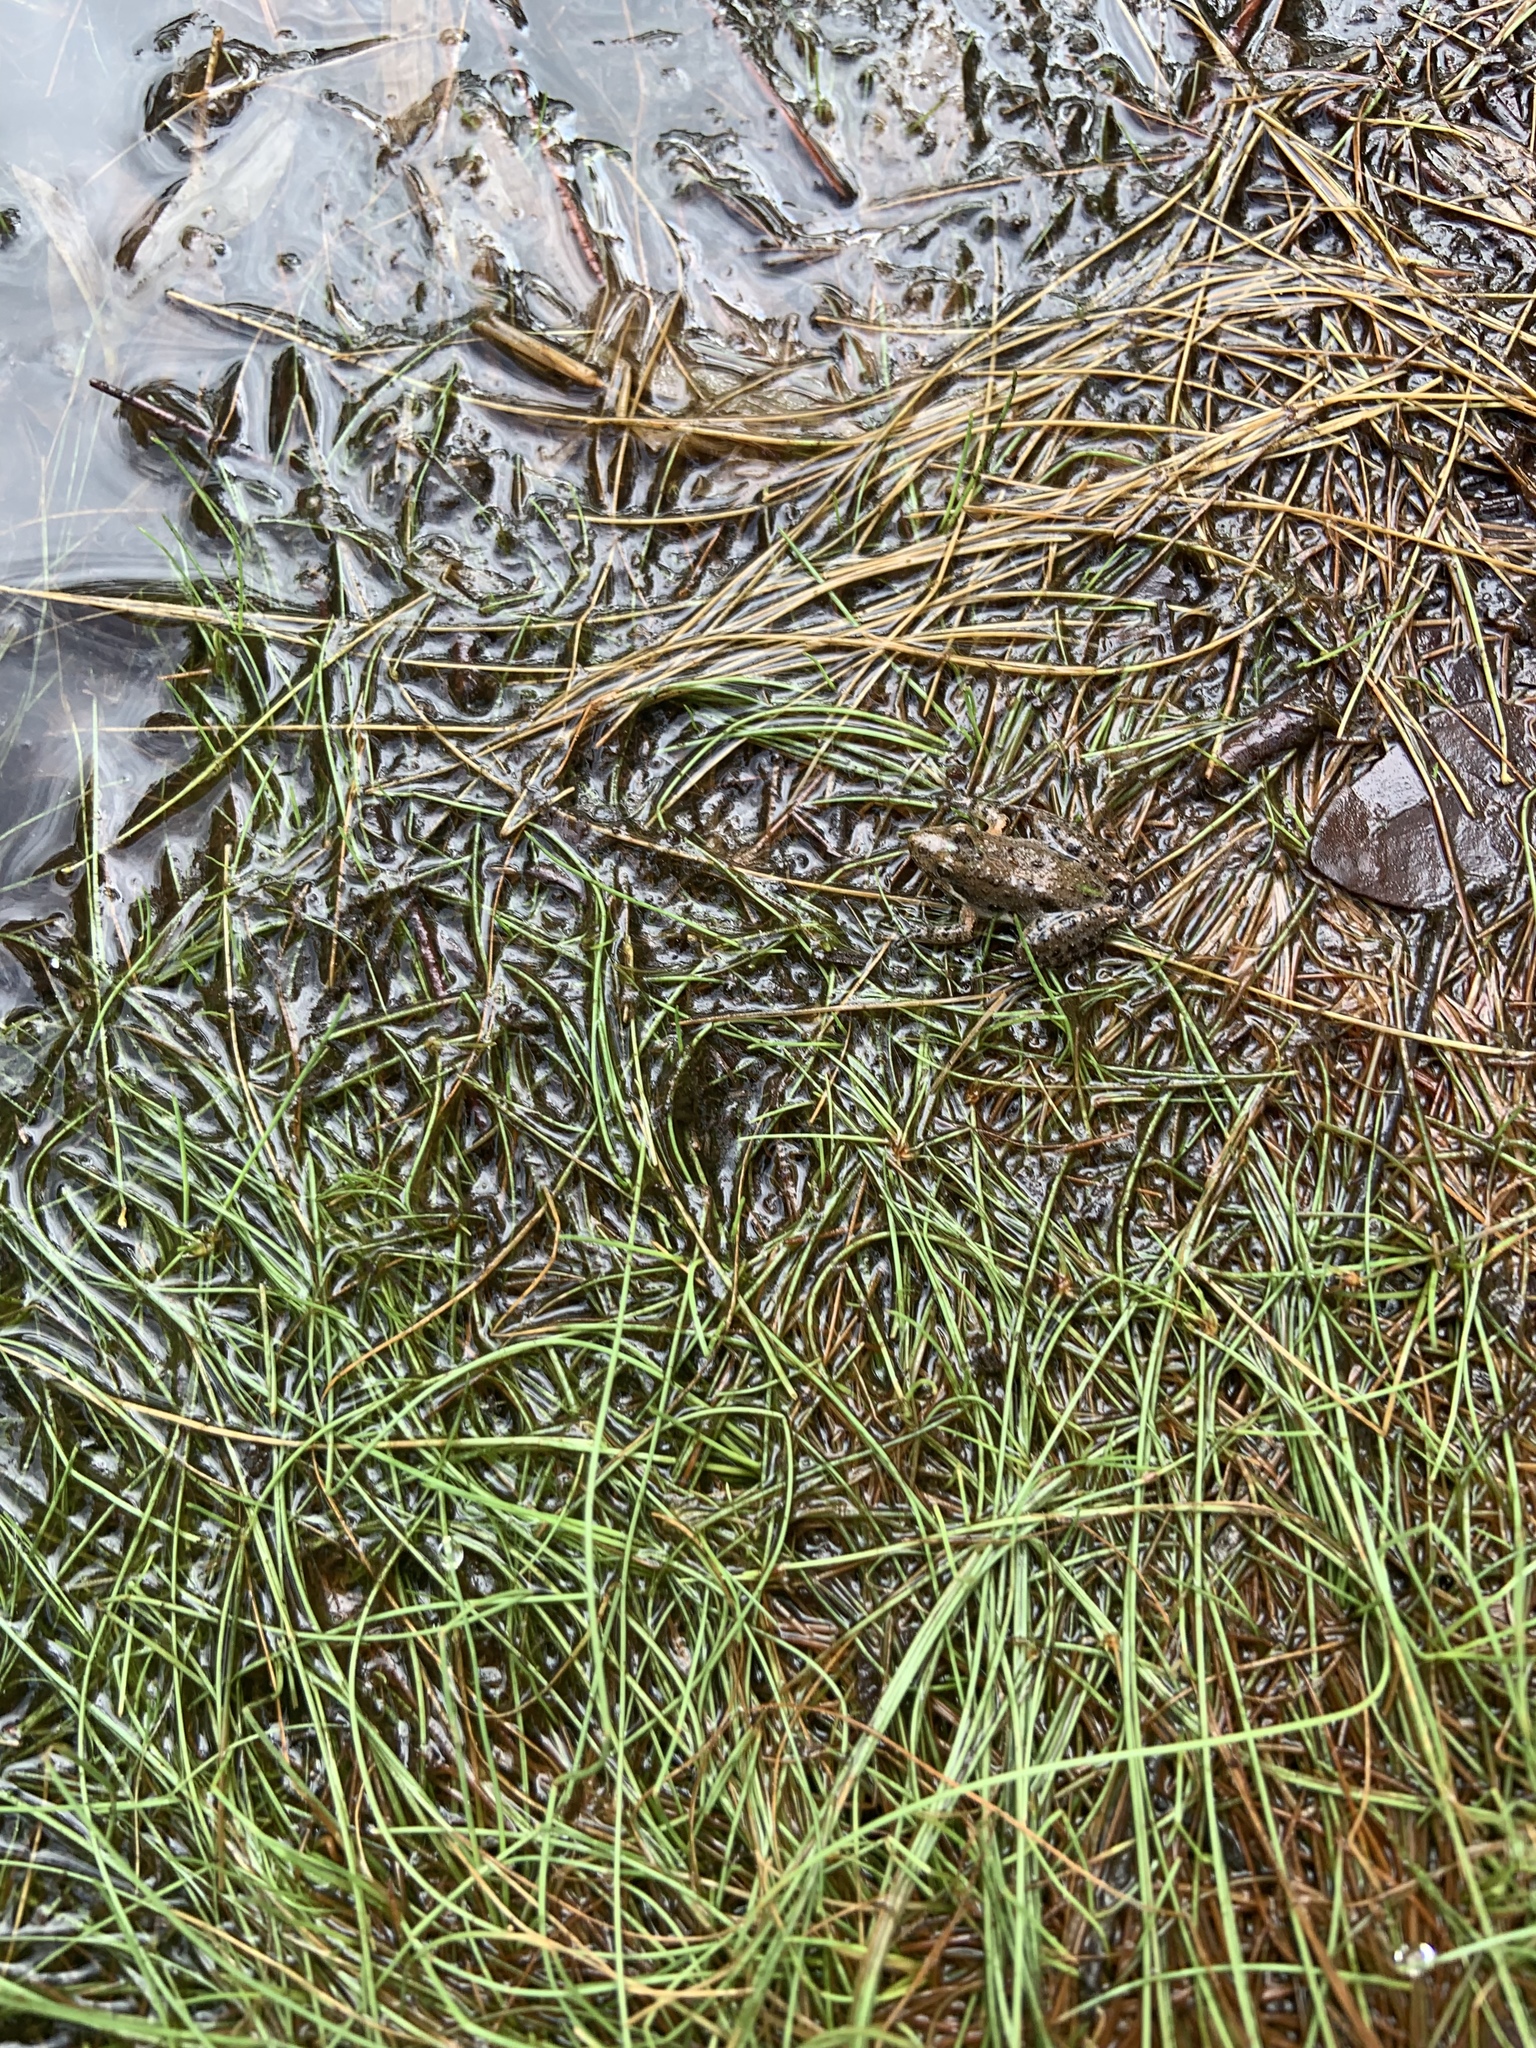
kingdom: Animalia
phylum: Chordata
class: Amphibia
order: Anura
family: Hylidae
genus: Acris
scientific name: Acris gryllus
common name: Southern cricket frog
